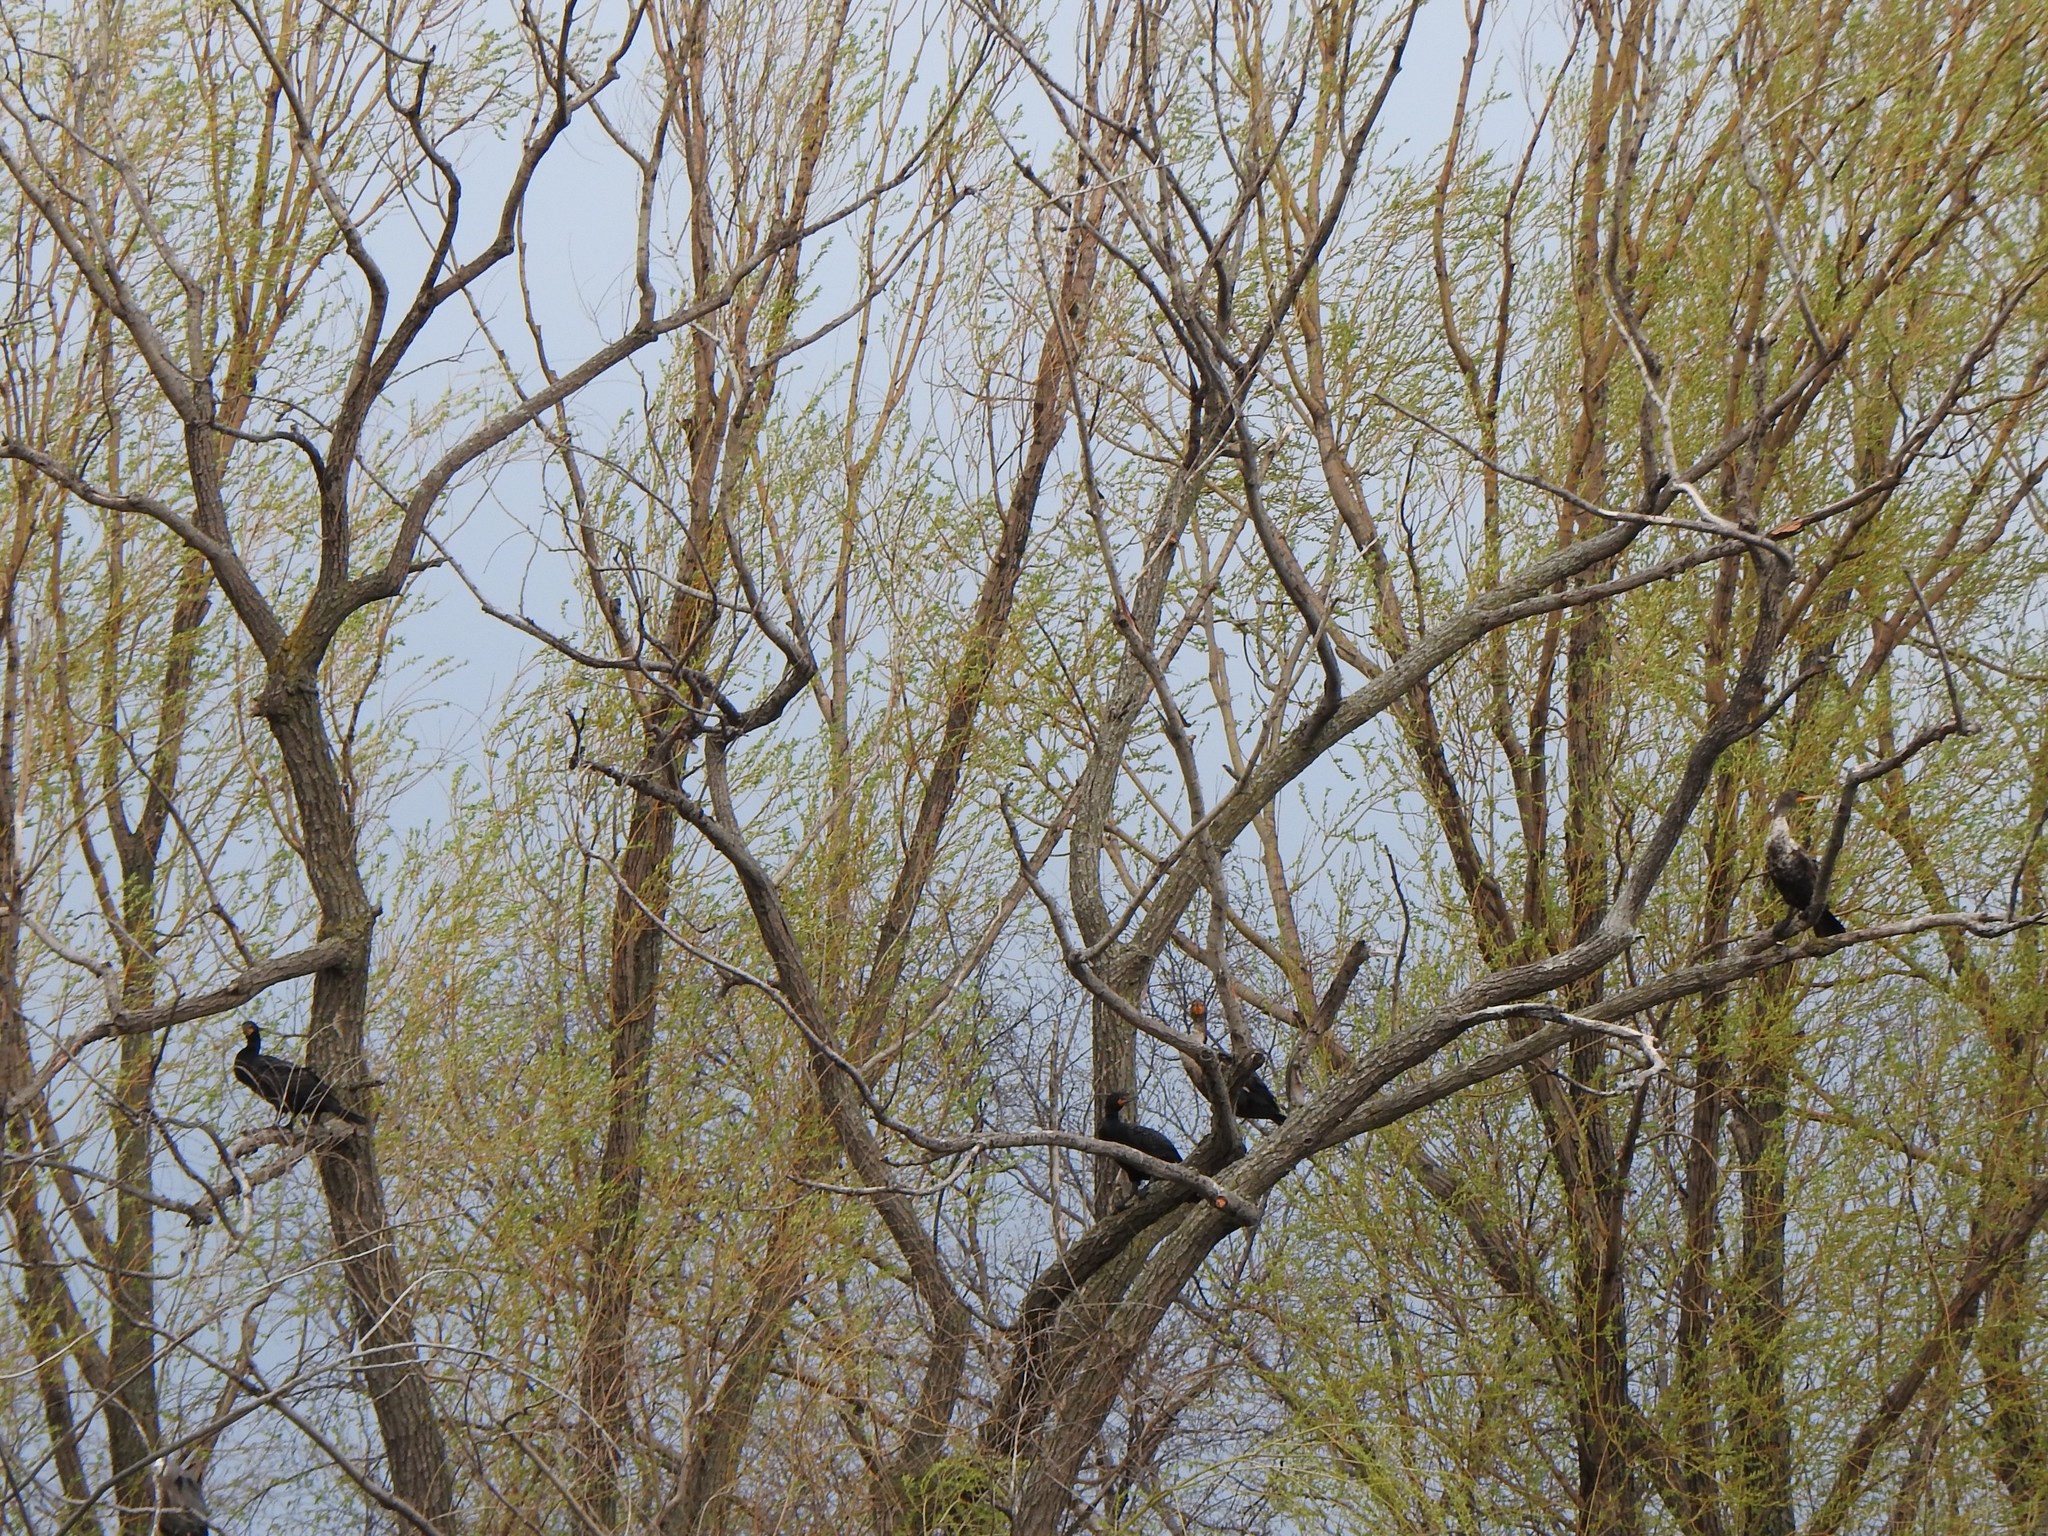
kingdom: Animalia
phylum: Chordata
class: Aves
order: Suliformes
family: Phalacrocoracidae
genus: Phalacrocorax
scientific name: Phalacrocorax auritus
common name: Double-crested cormorant
